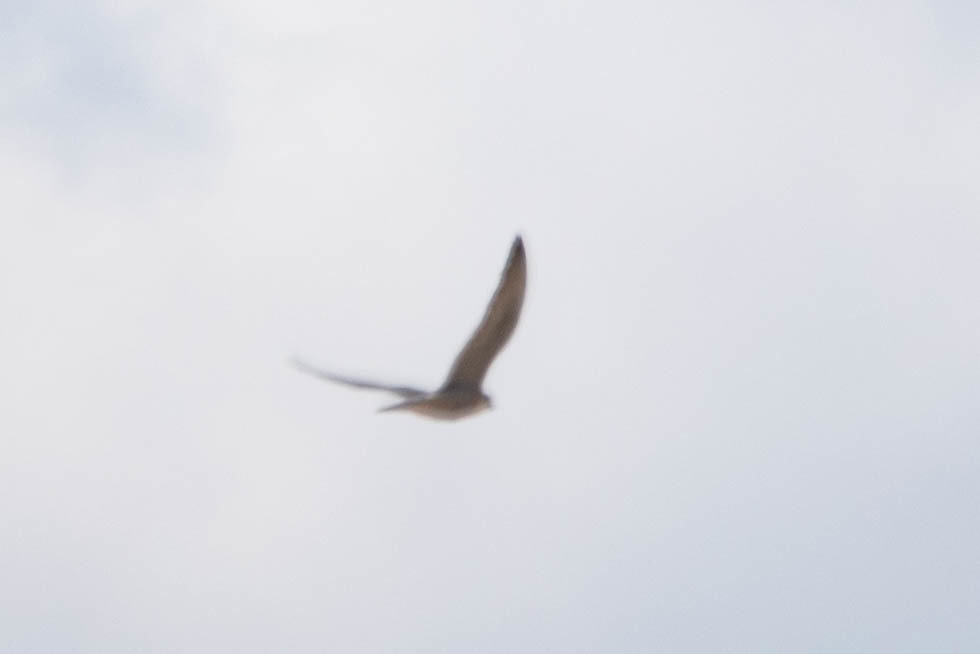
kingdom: Animalia
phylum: Chordata
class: Aves
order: Falconiformes
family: Falconidae
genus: Falco
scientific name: Falco peregrinus
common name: Peregrine falcon
